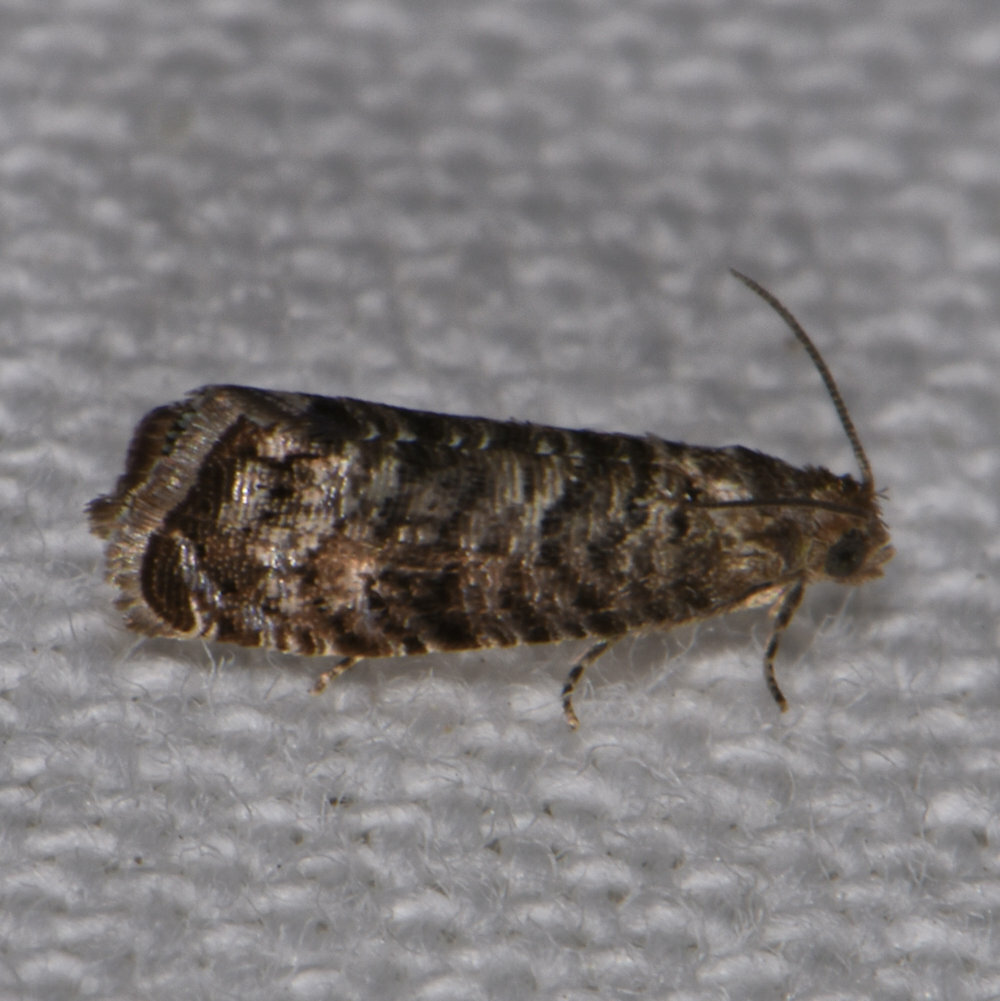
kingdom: Animalia
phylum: Arthropoda
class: Insecta
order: Lepidoptera
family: Noctuidae
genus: Aspila
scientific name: Aspila
